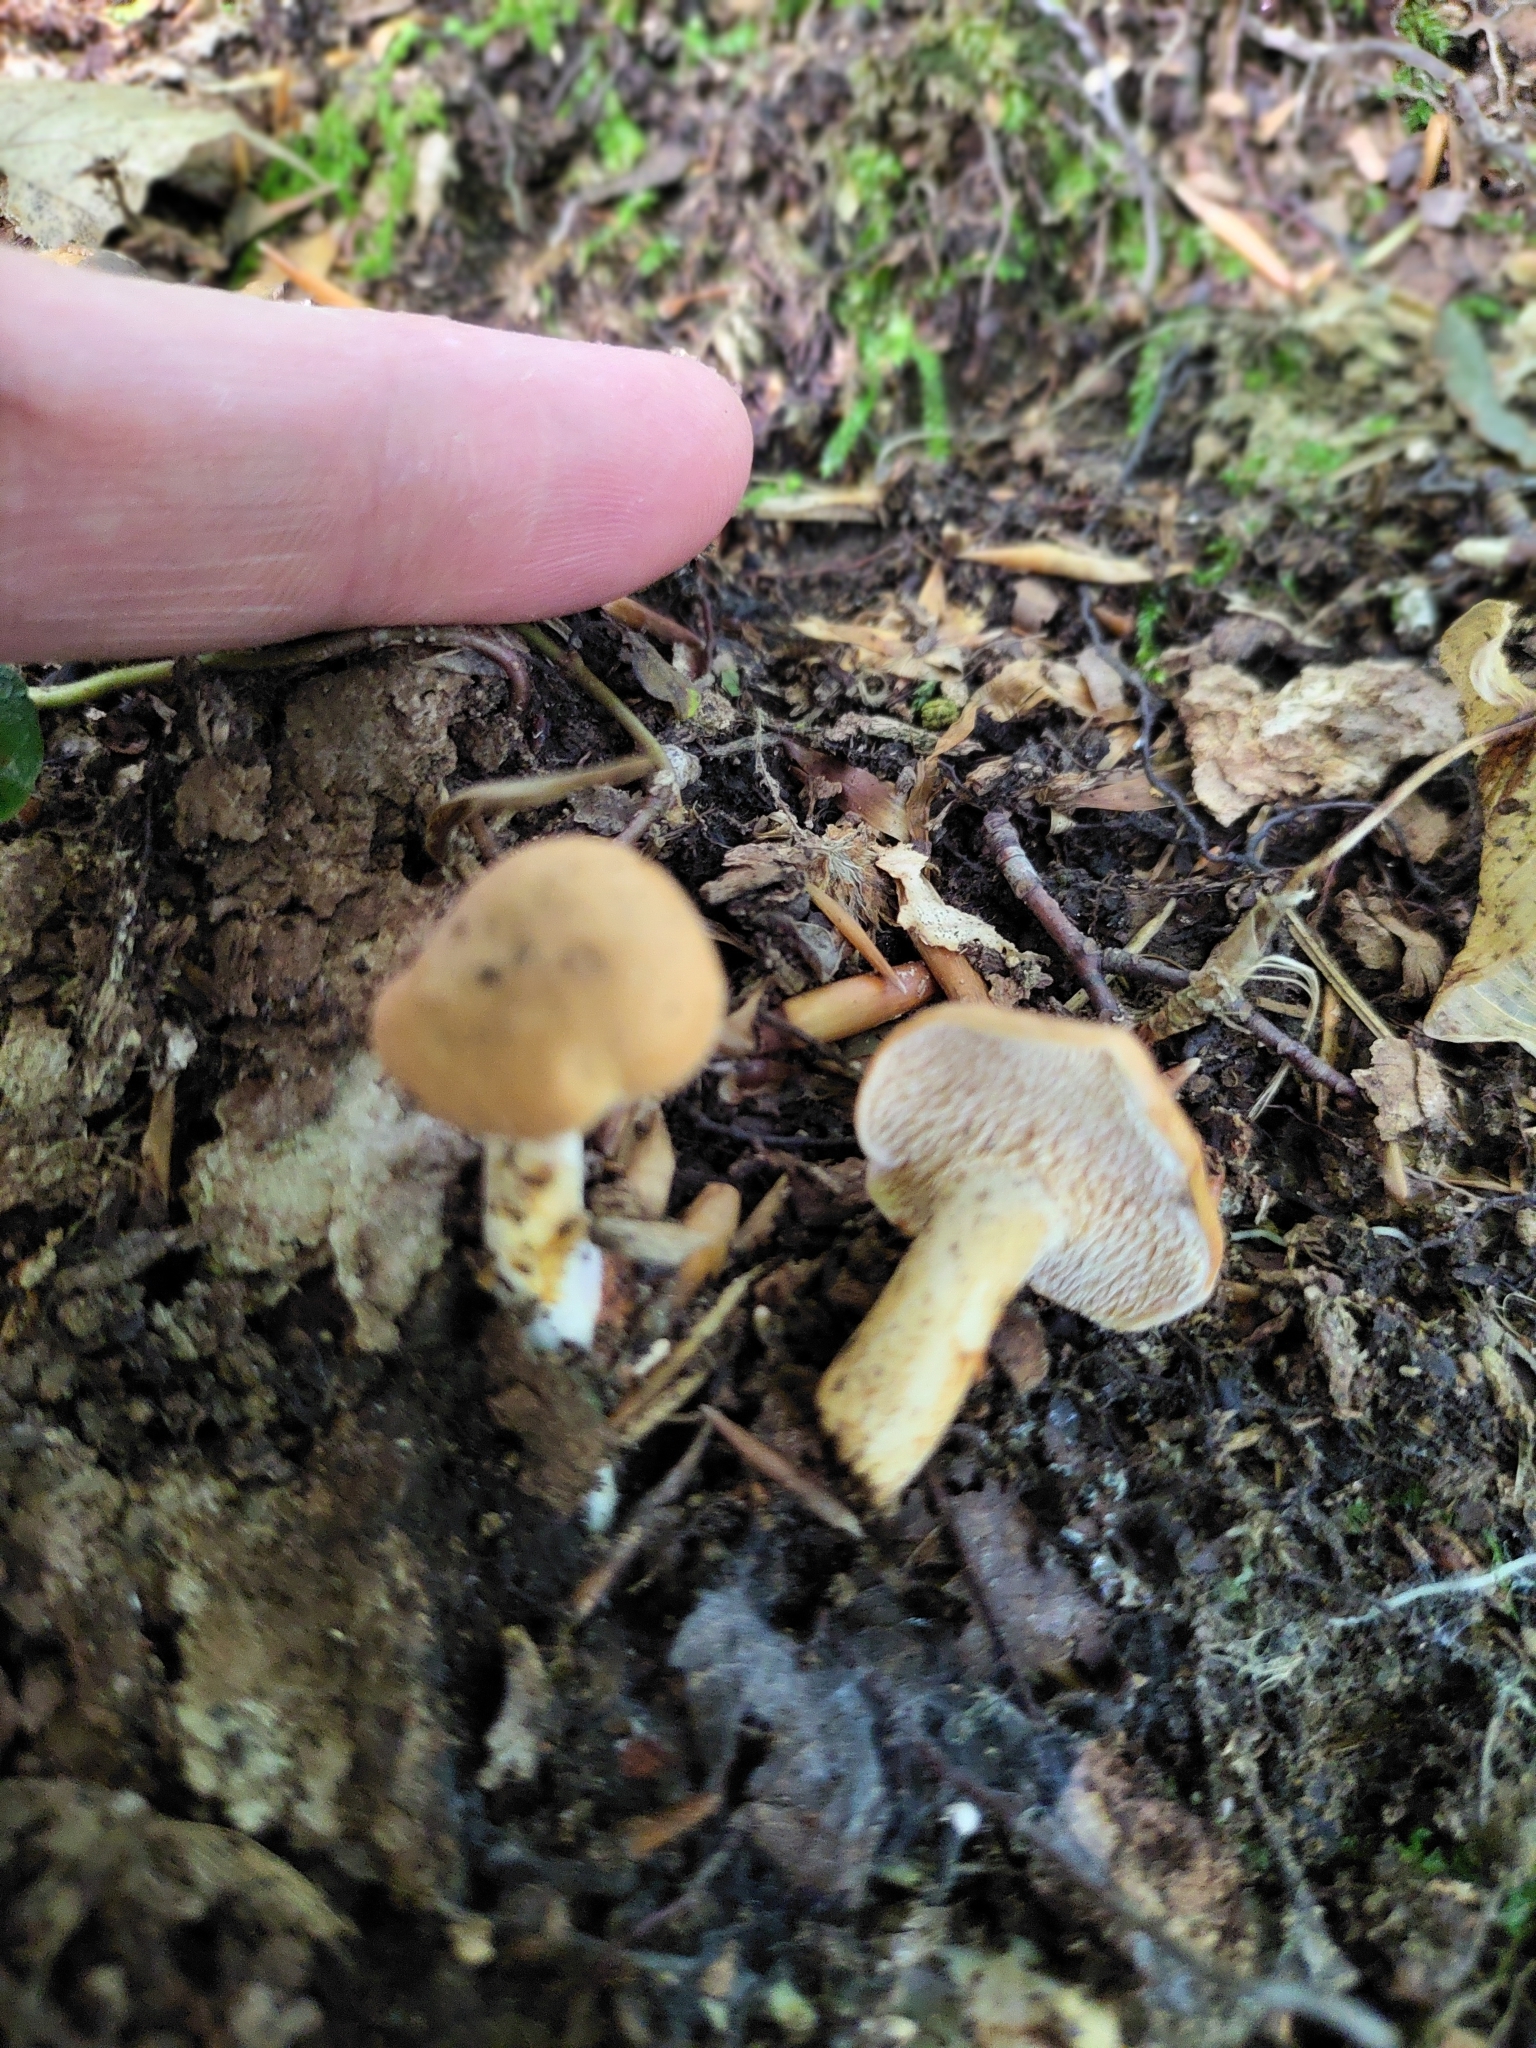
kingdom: Fungi
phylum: Basidiomycota
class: Agaricomycetes
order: Cantharellales
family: Hydnaceae
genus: Hydnum
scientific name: Hydnum umbilicatum
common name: Umbilicate hedgehog
